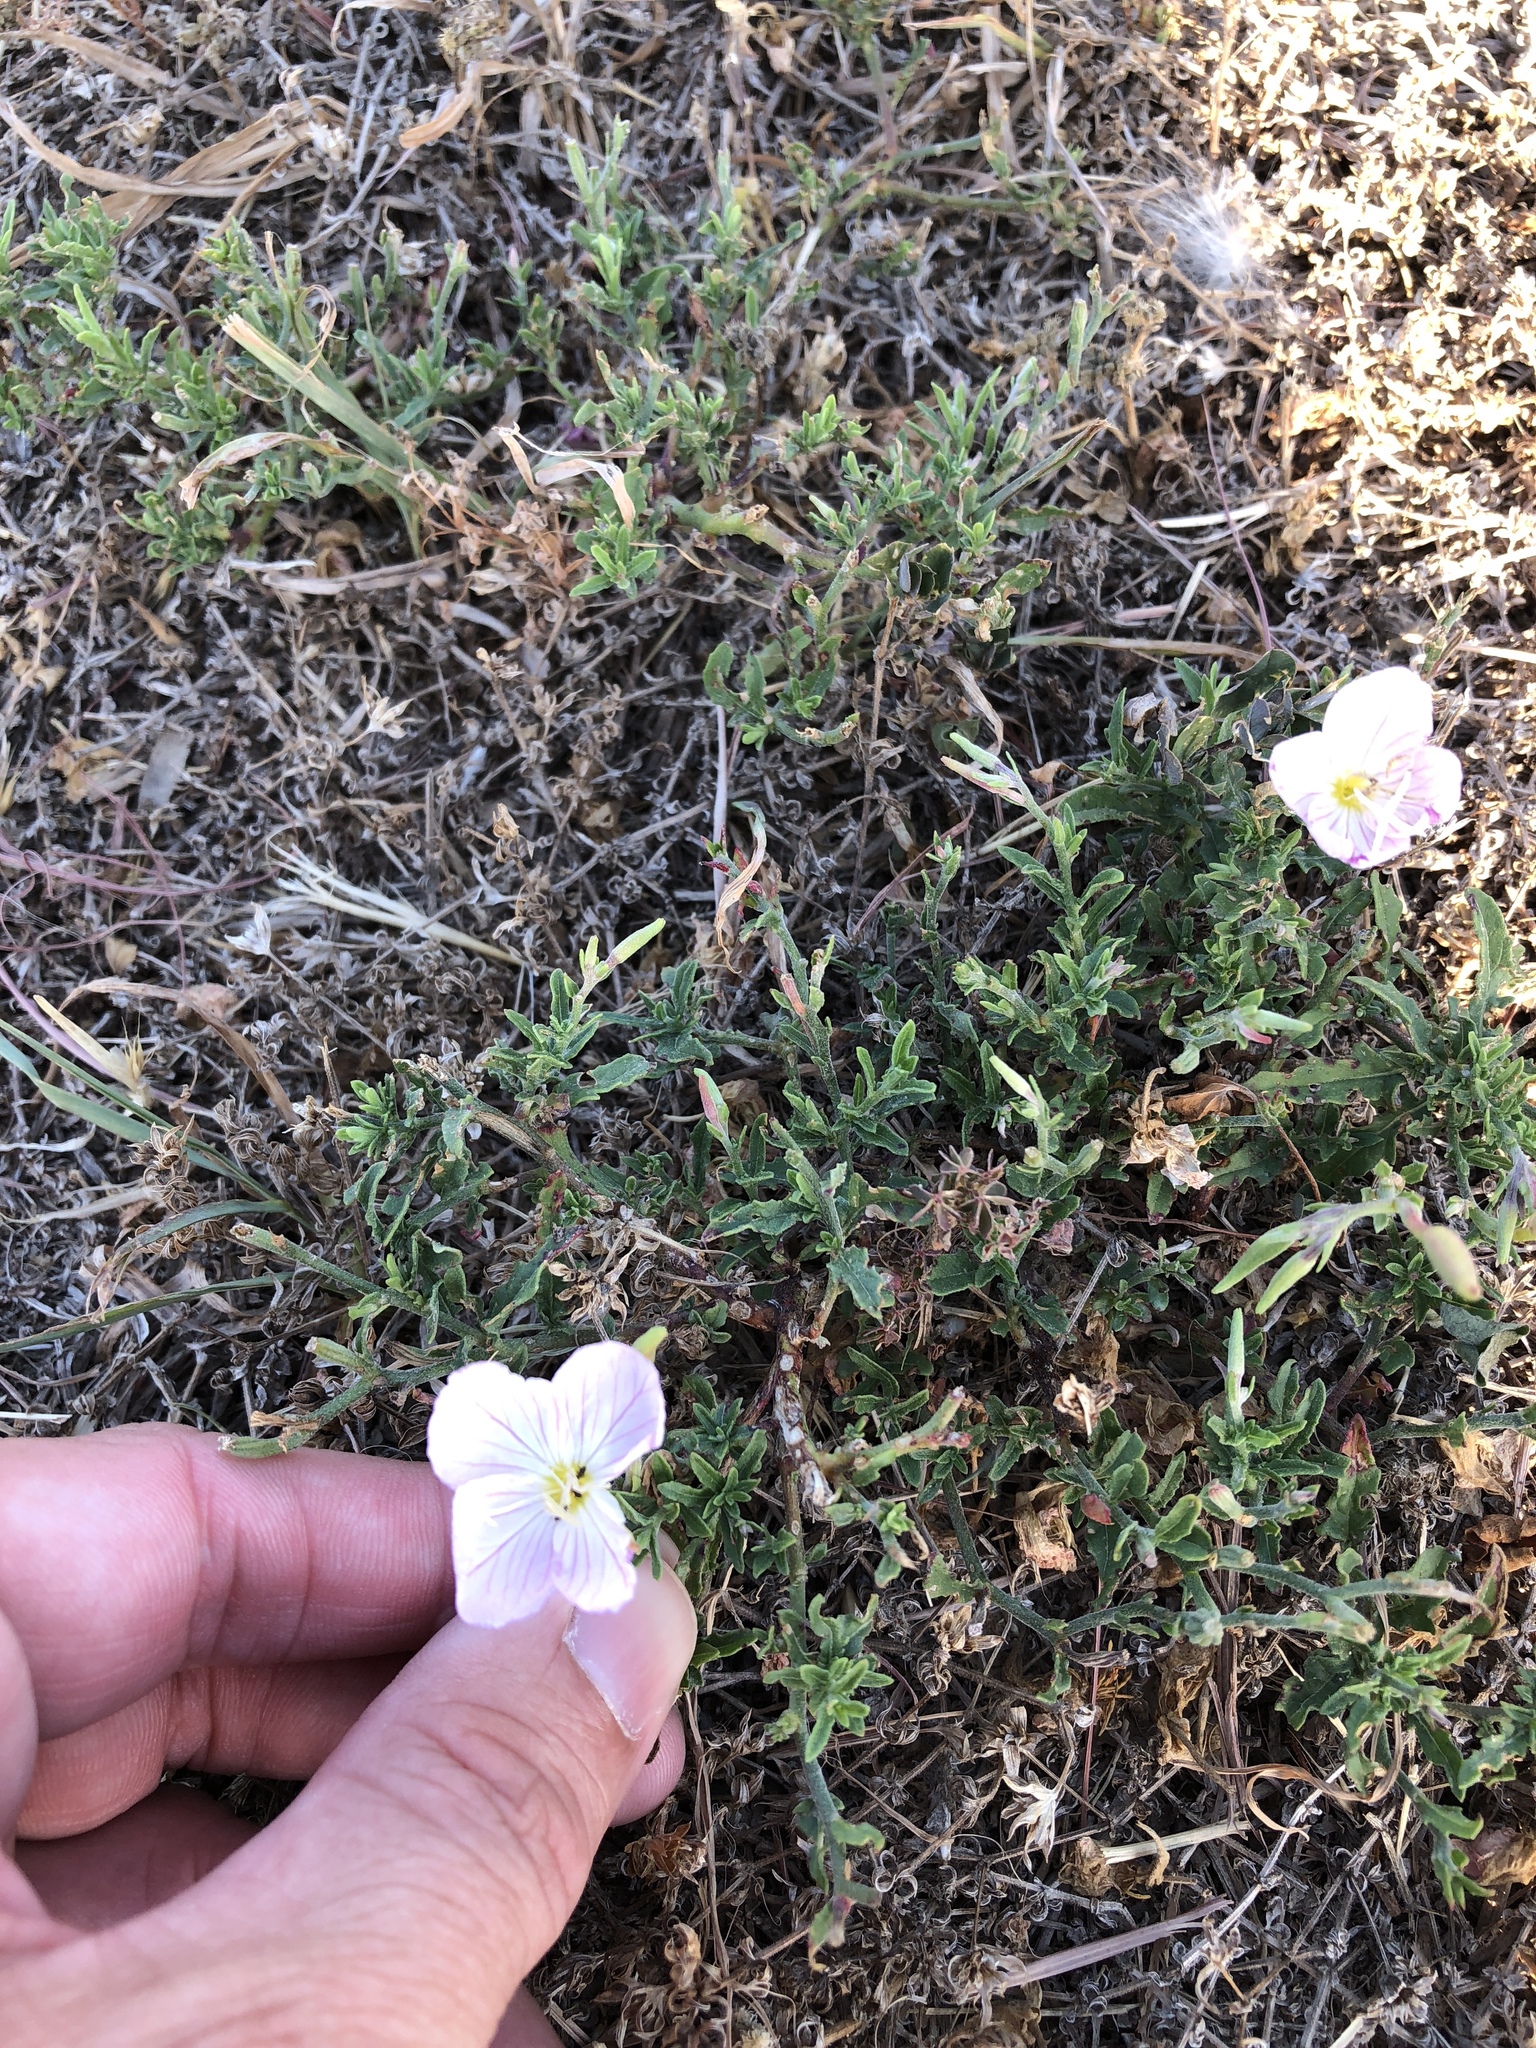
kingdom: Plantae
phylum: Tracheophyta
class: Magnoliopsida
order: Myrtales
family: Onagraceae
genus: Oenothera
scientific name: Oenothera speciosa
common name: White evening-primrose
